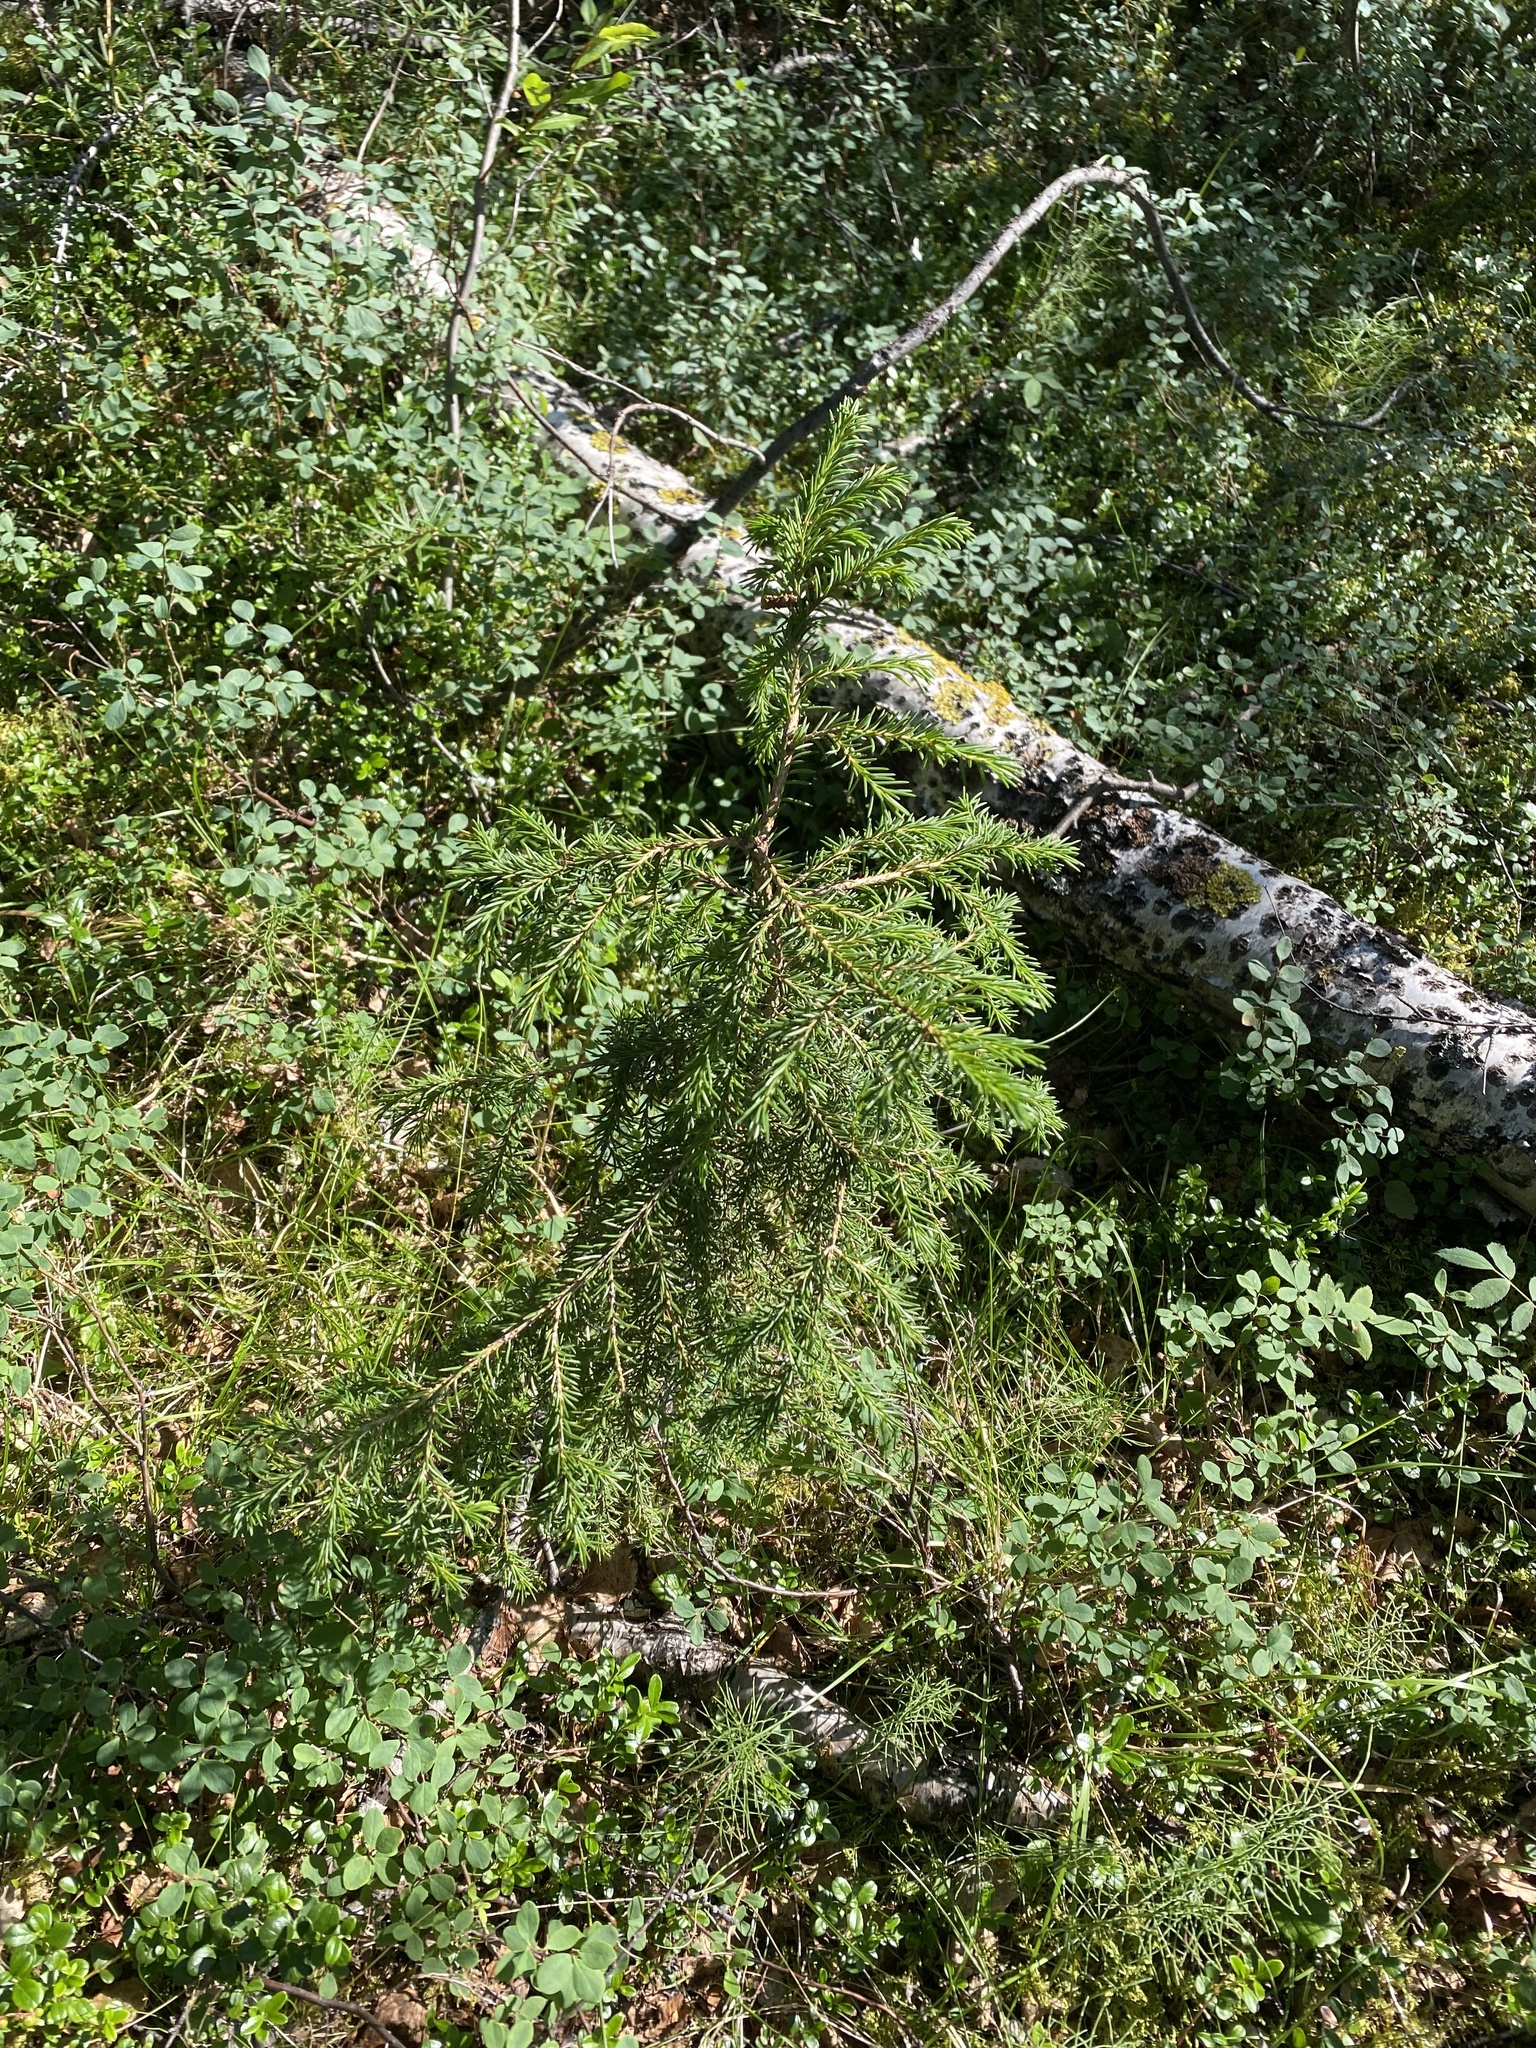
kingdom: Plantae
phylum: Tracheophyta
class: Pinopsida
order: Pinales
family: Pinaceae
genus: Picea
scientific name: Picea obovata
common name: Siberian spruce
